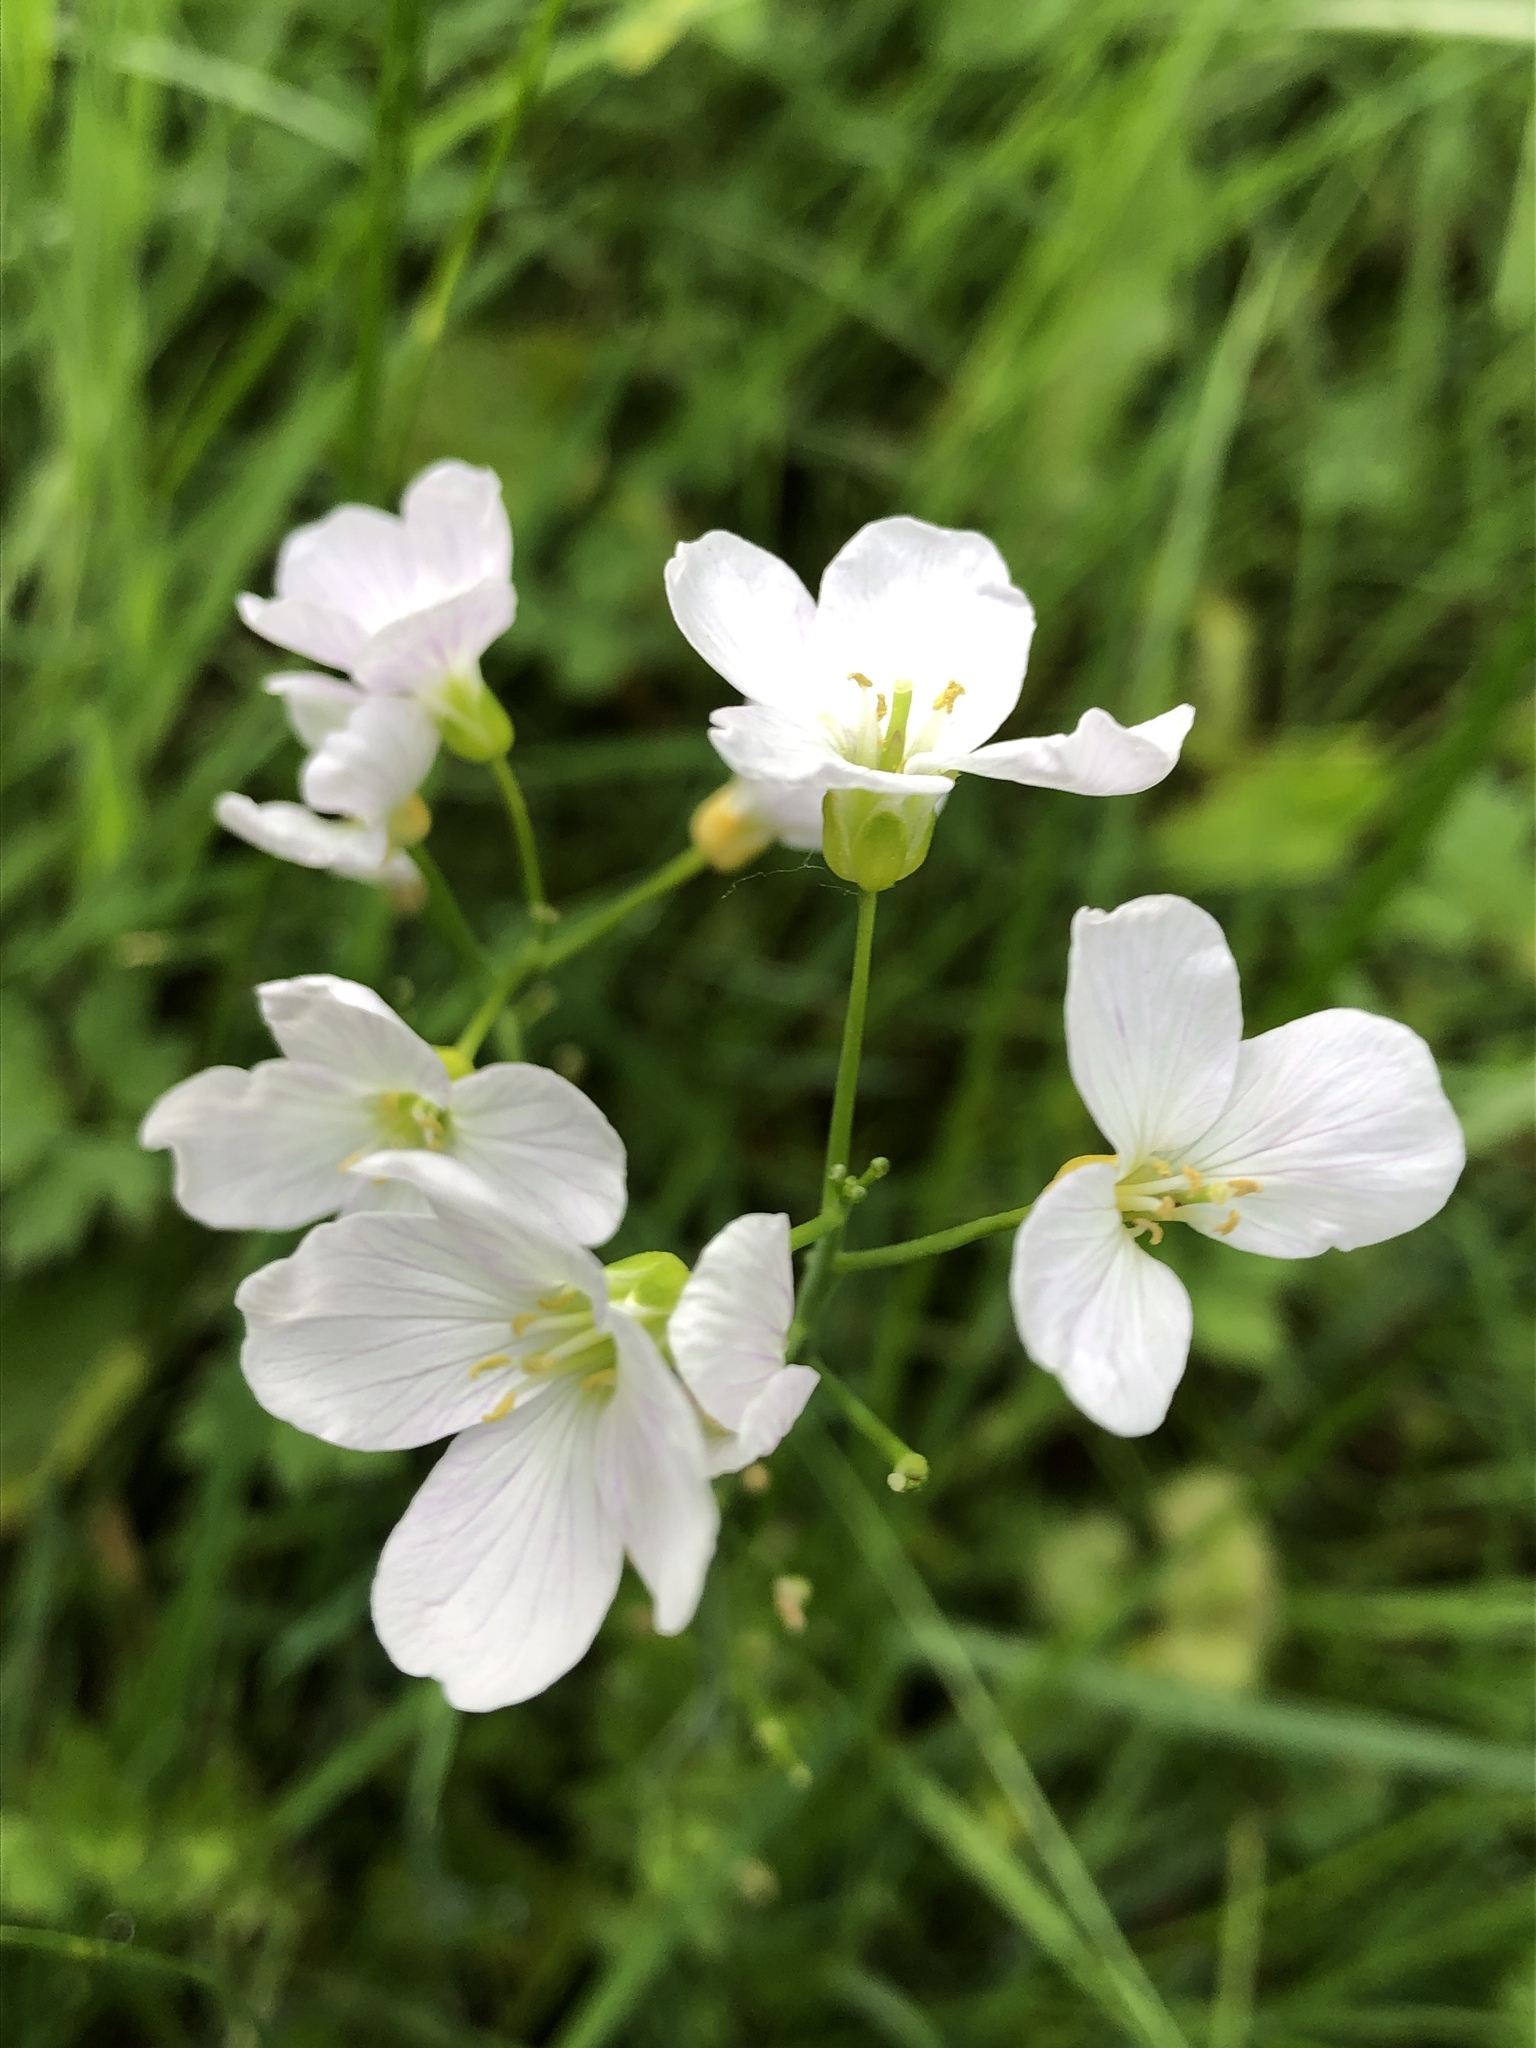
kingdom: Plantae
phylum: Tracheophyta
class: Magnoliopsida
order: Brassicales
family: Brassicaceae
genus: Cardamine
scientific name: Cardamine pratensis
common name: Cuckoo flower
